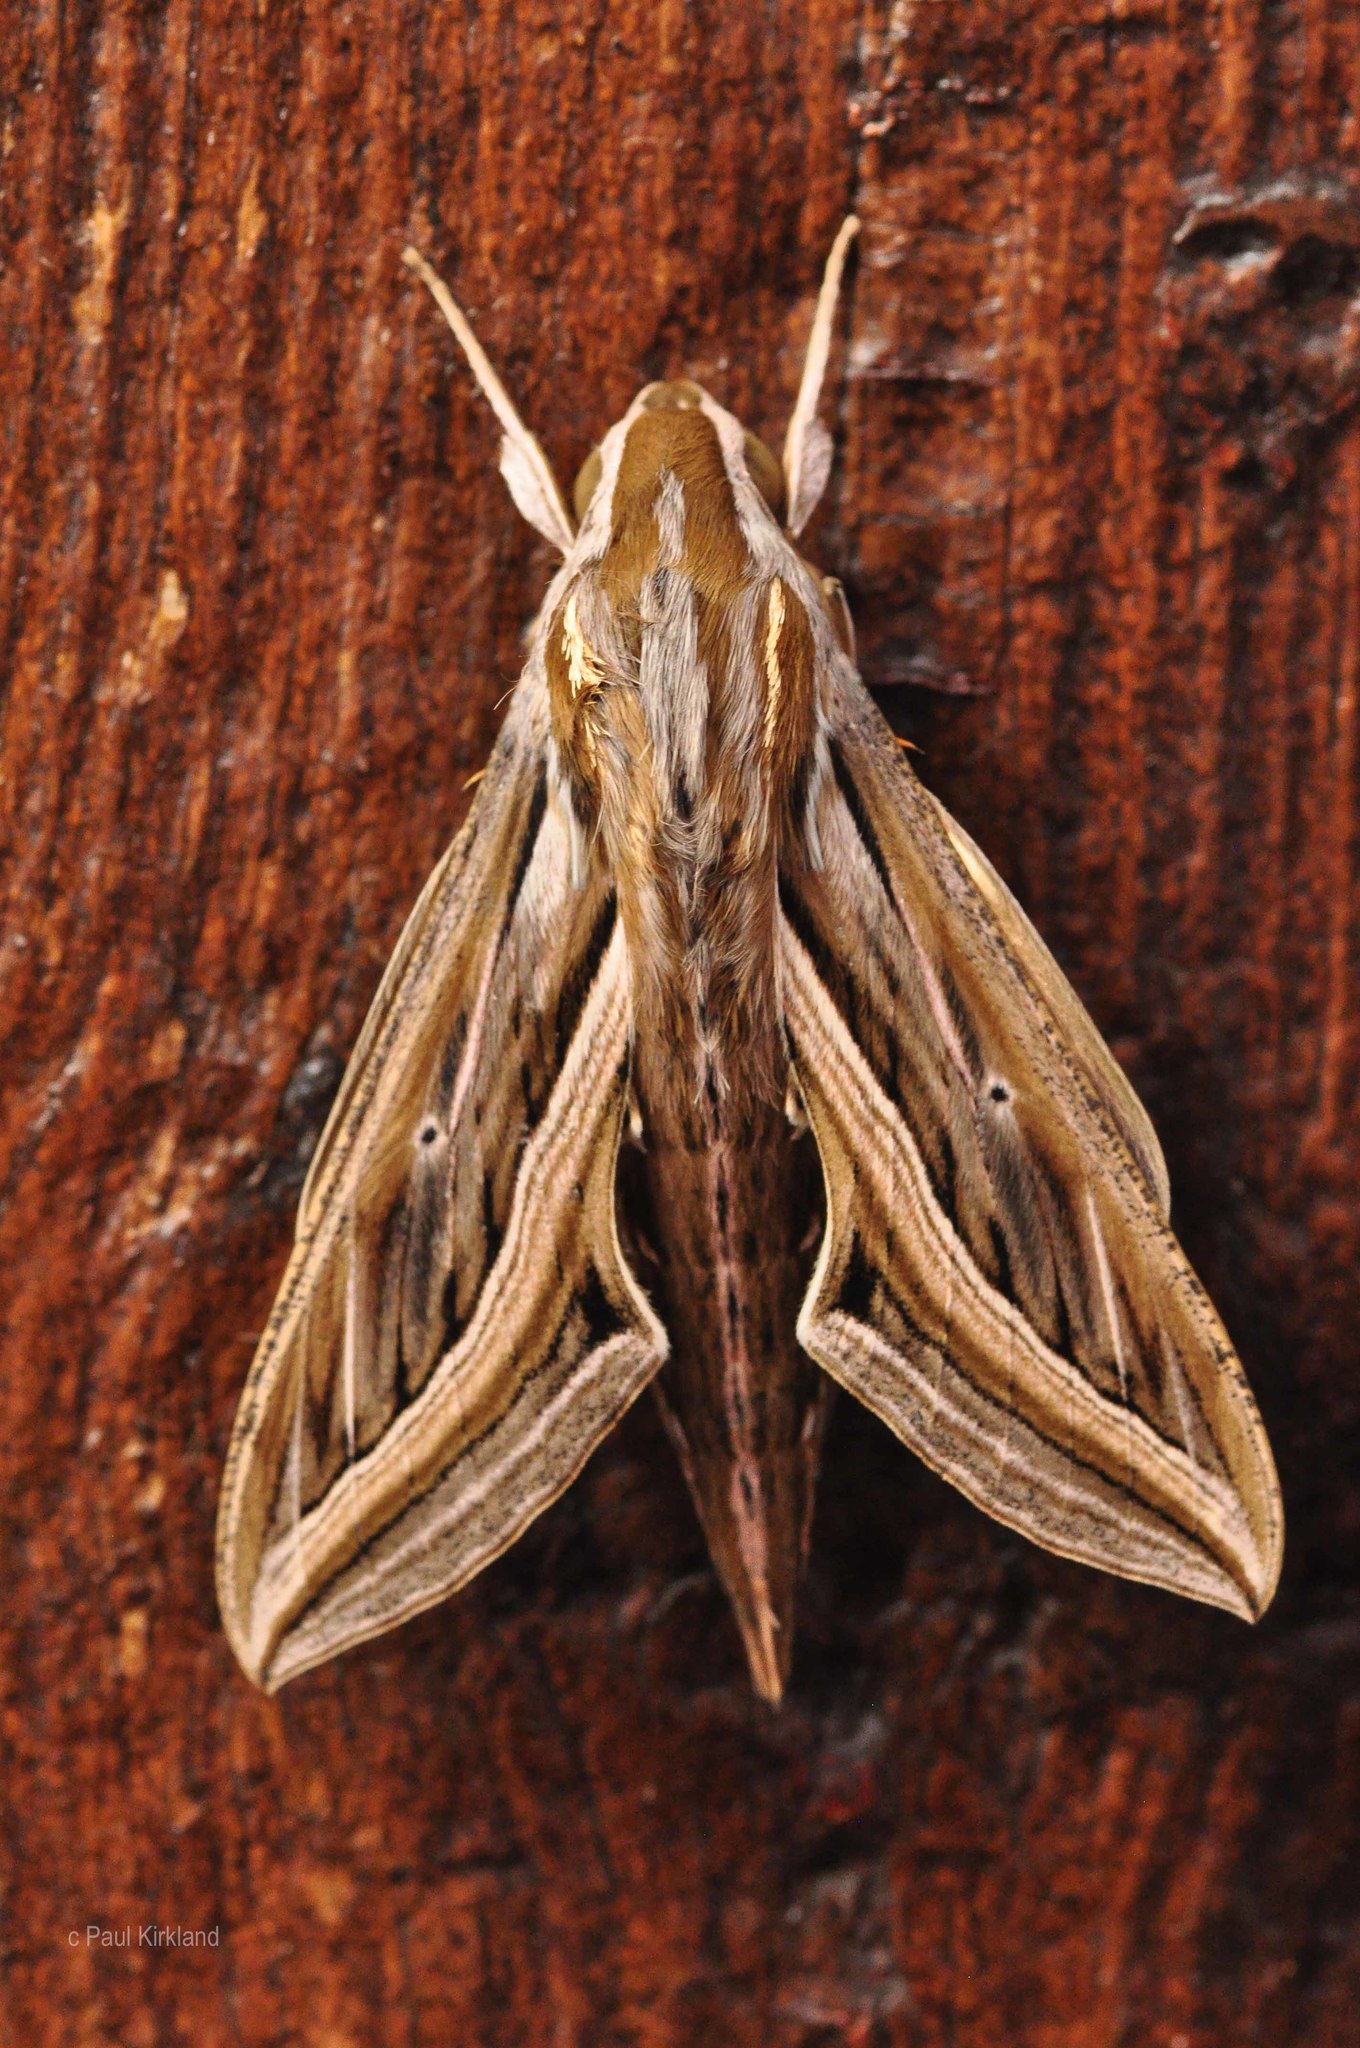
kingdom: Animalia
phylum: Arthropoda
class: Insecta
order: Lepidoptera
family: Sphingidae
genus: Hippotion
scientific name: Hippotion celerio
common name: Silver-striped hawk-moth
